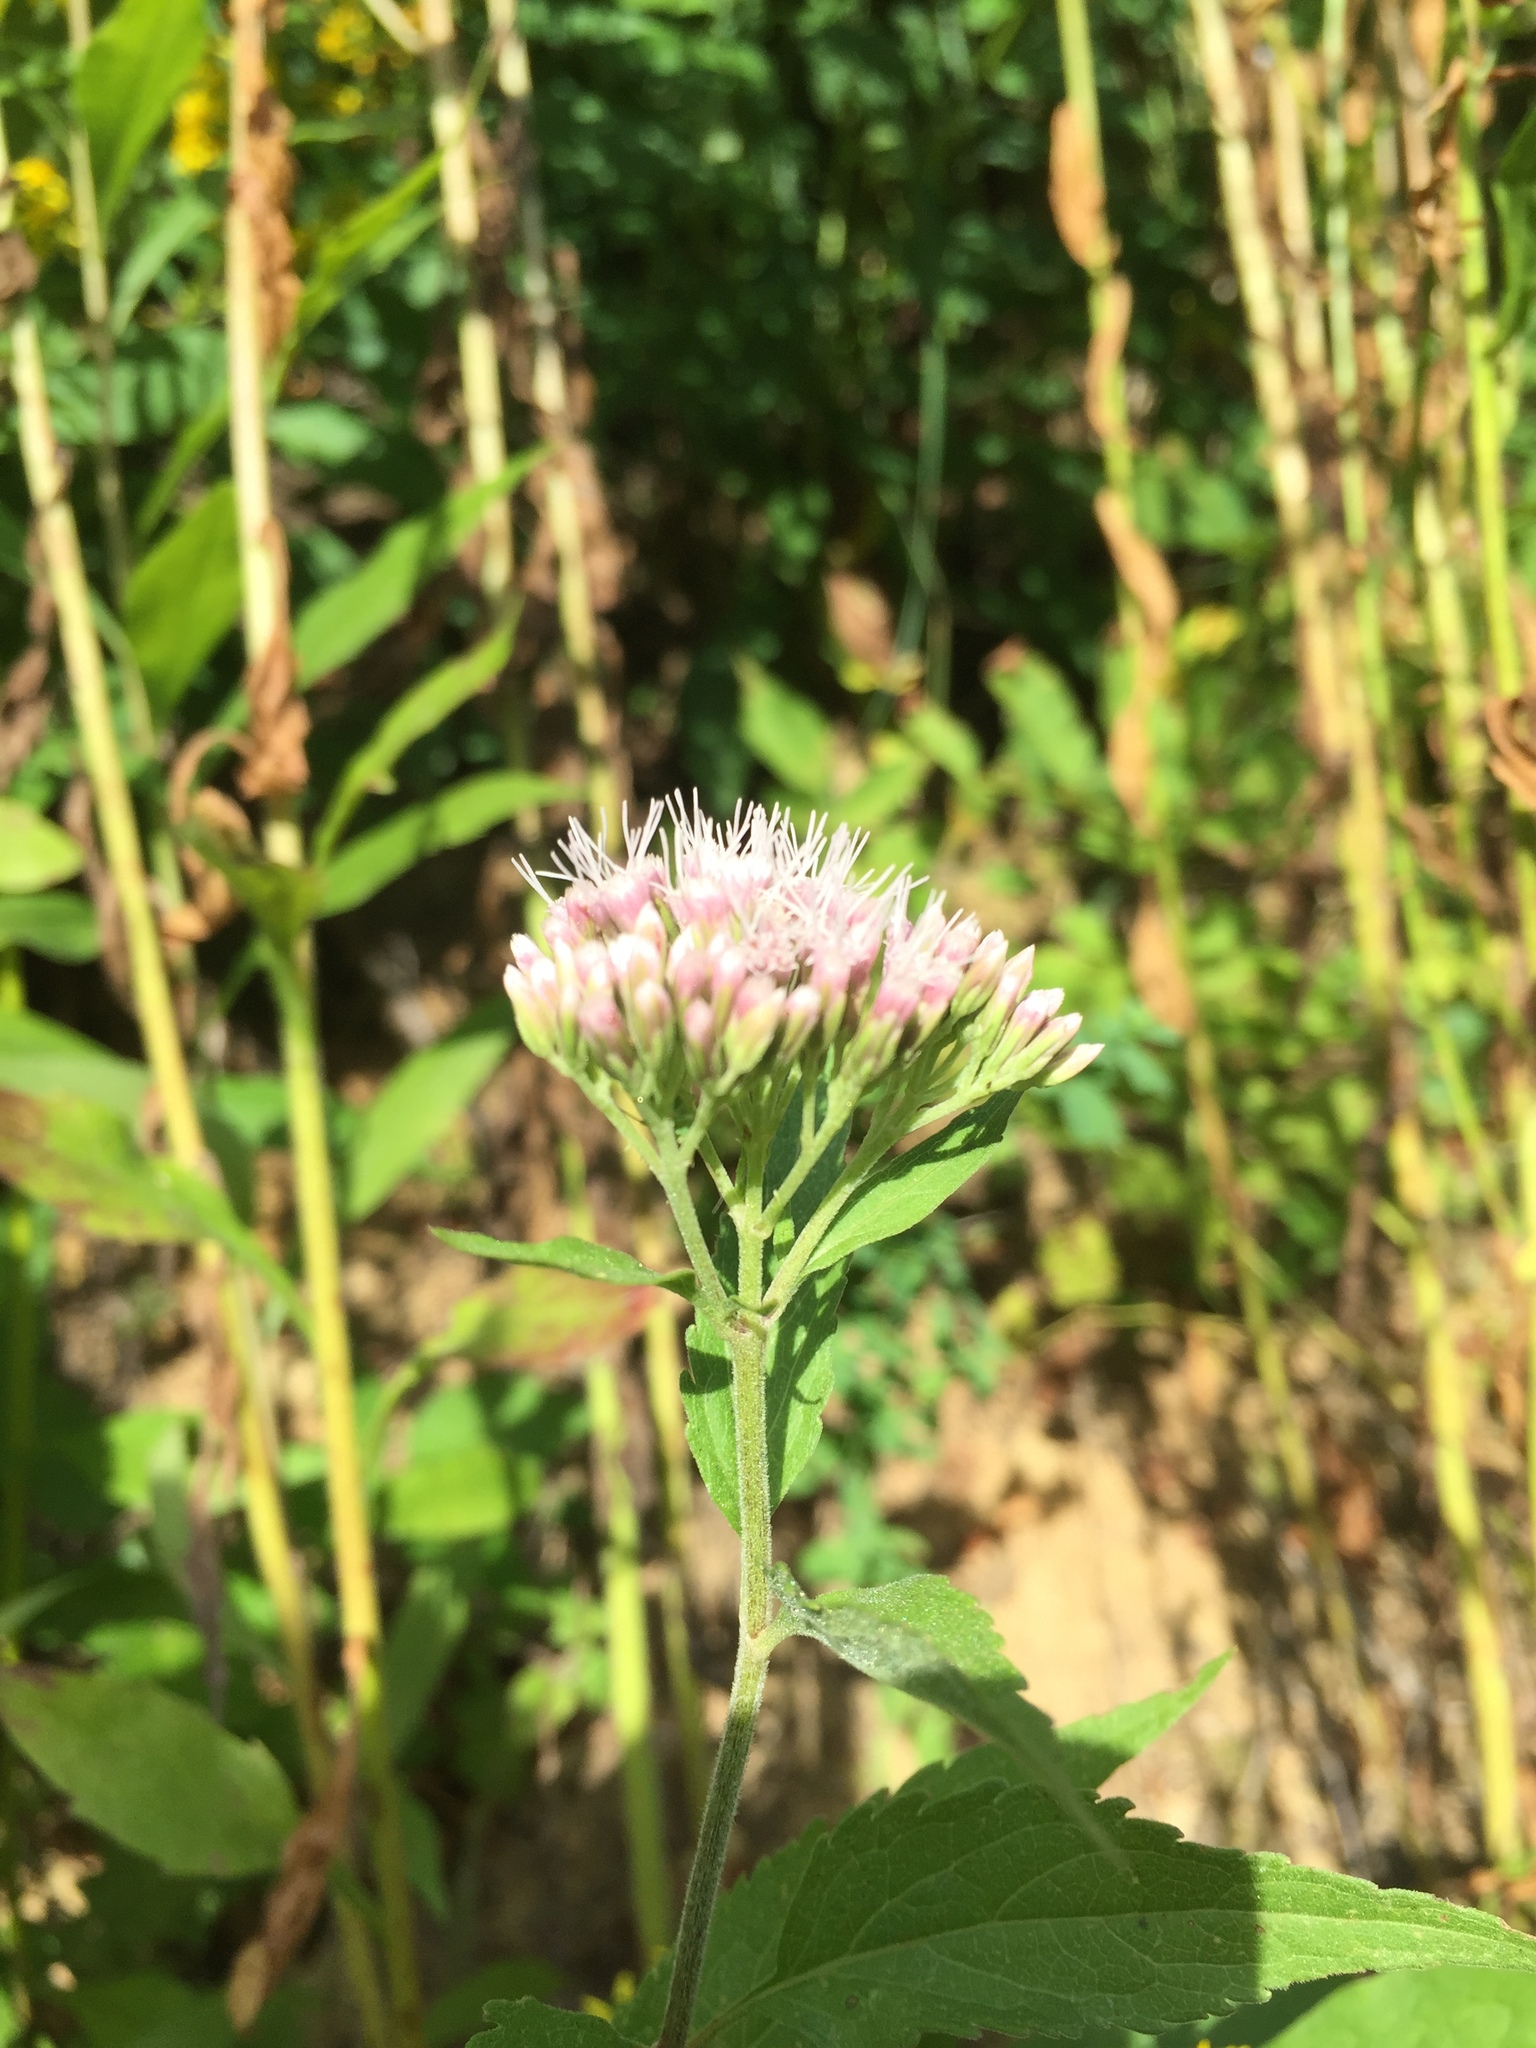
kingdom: Plantae
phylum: Tracheophyta
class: Magnoliopsida
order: Asterales
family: Asteraceae
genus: Eupatorium
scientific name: Eupatorium cannabinum
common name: Hemp-agrimony
